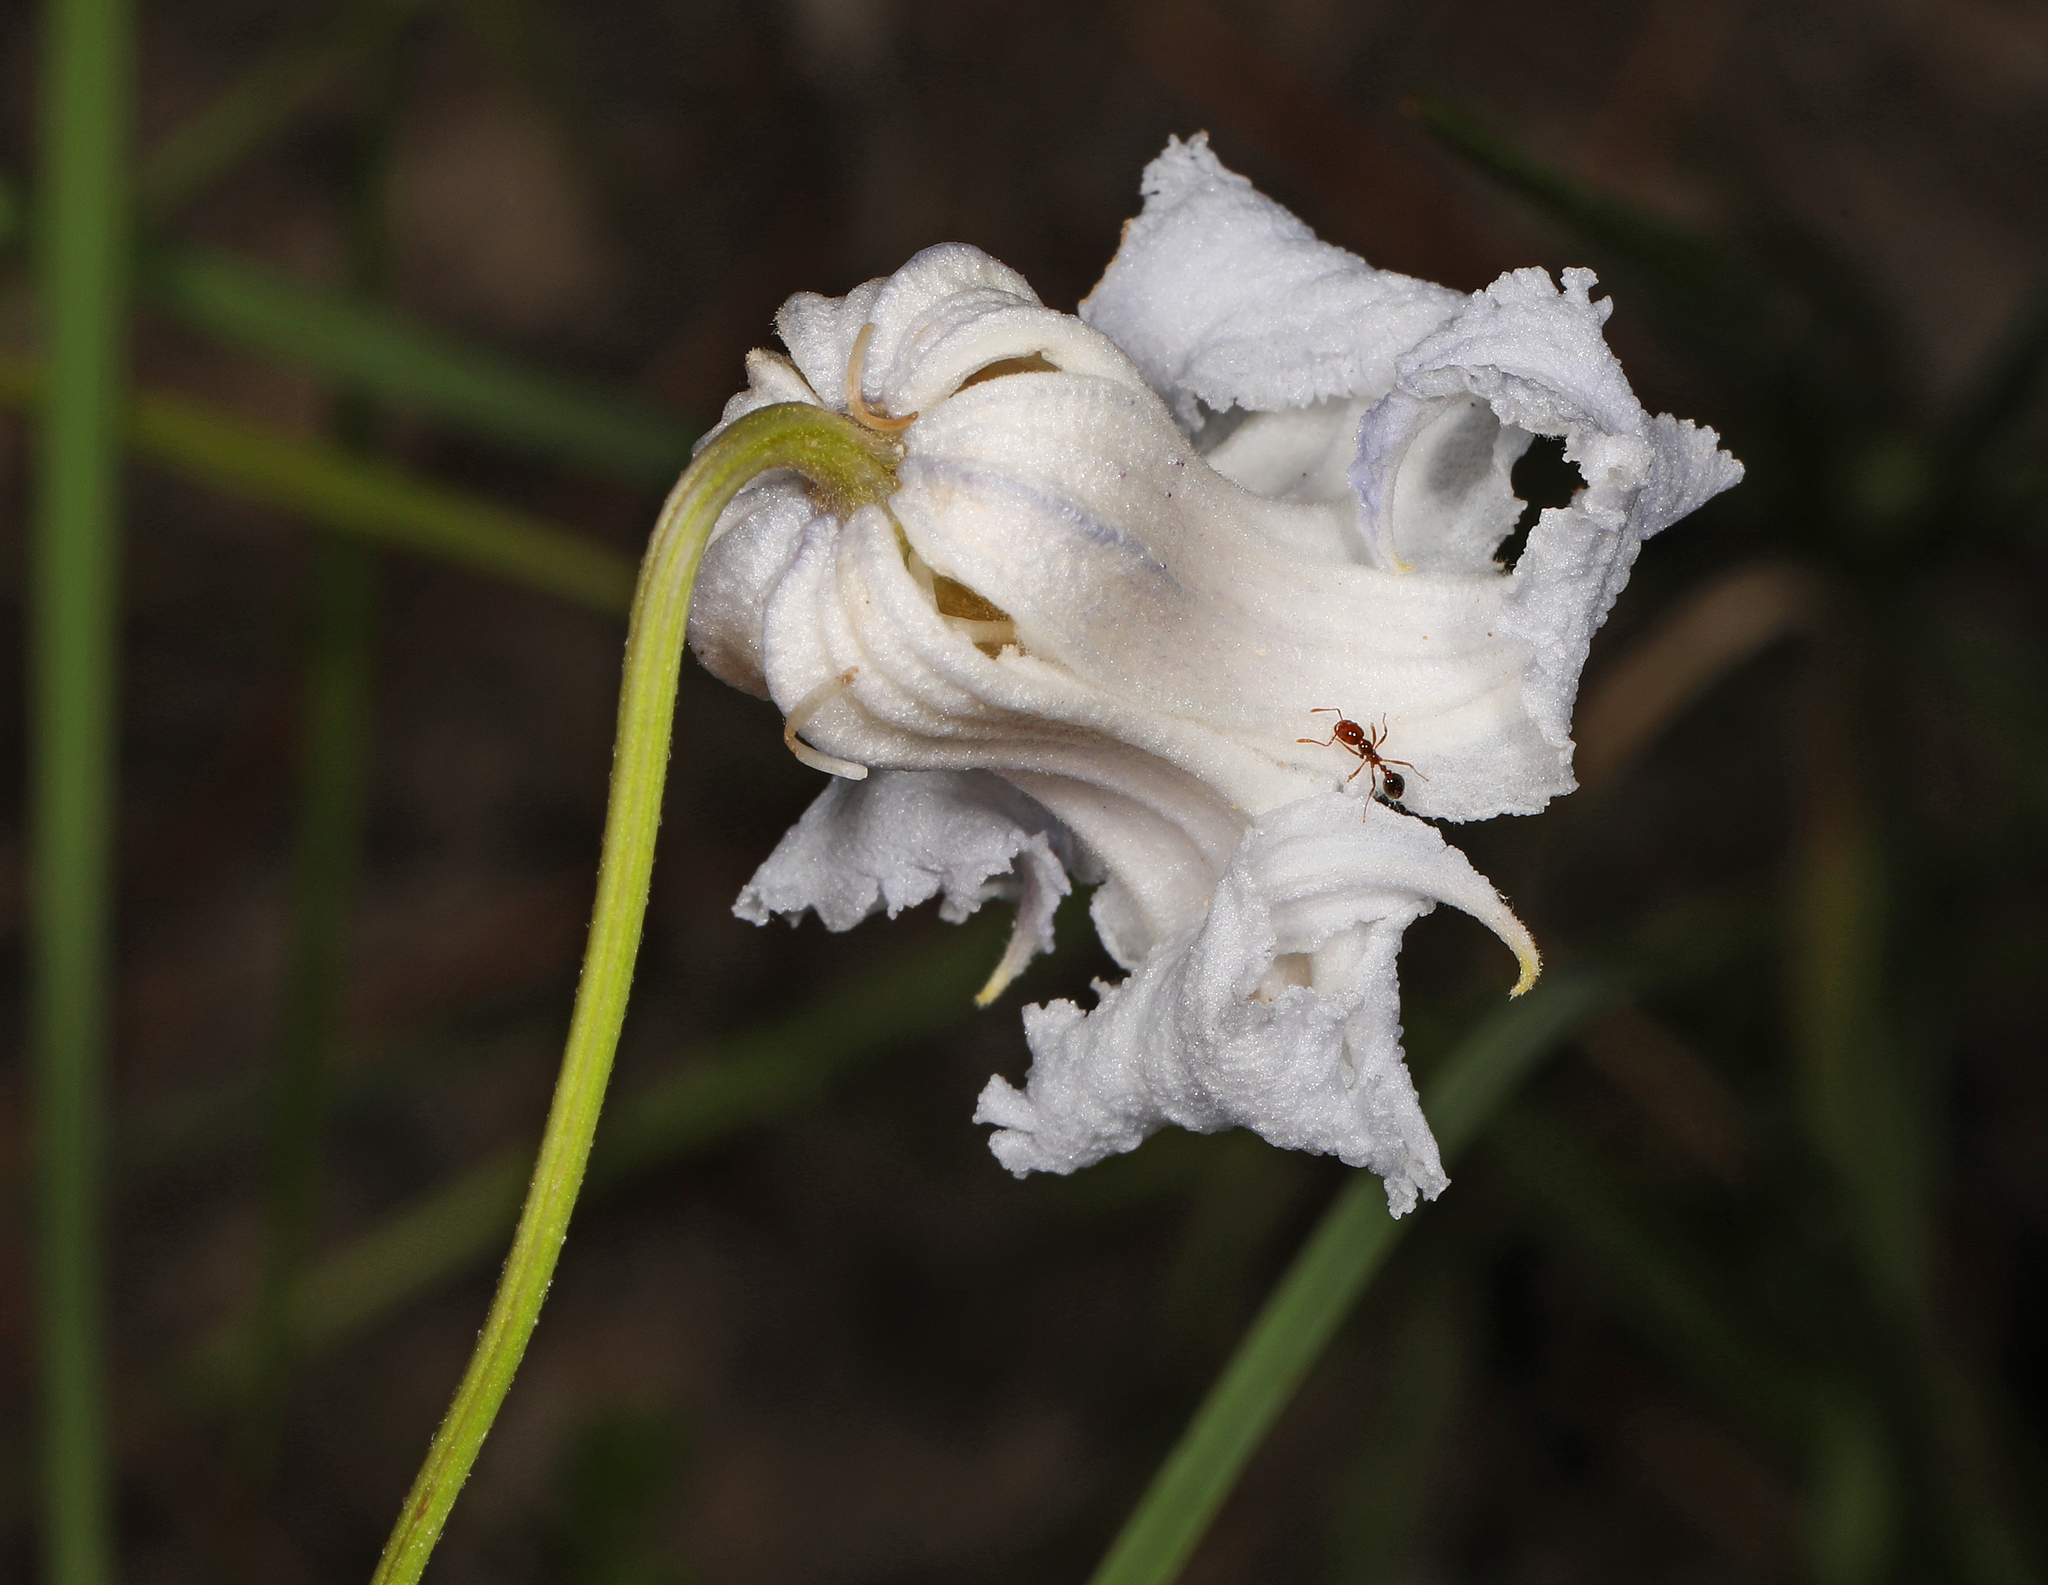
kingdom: Plantae
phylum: Tracheophyta
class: Magnoliopsida
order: Ranunculales
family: Ranunculaceae
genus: Clematis
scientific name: Clematis crispa
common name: Curly clematis
